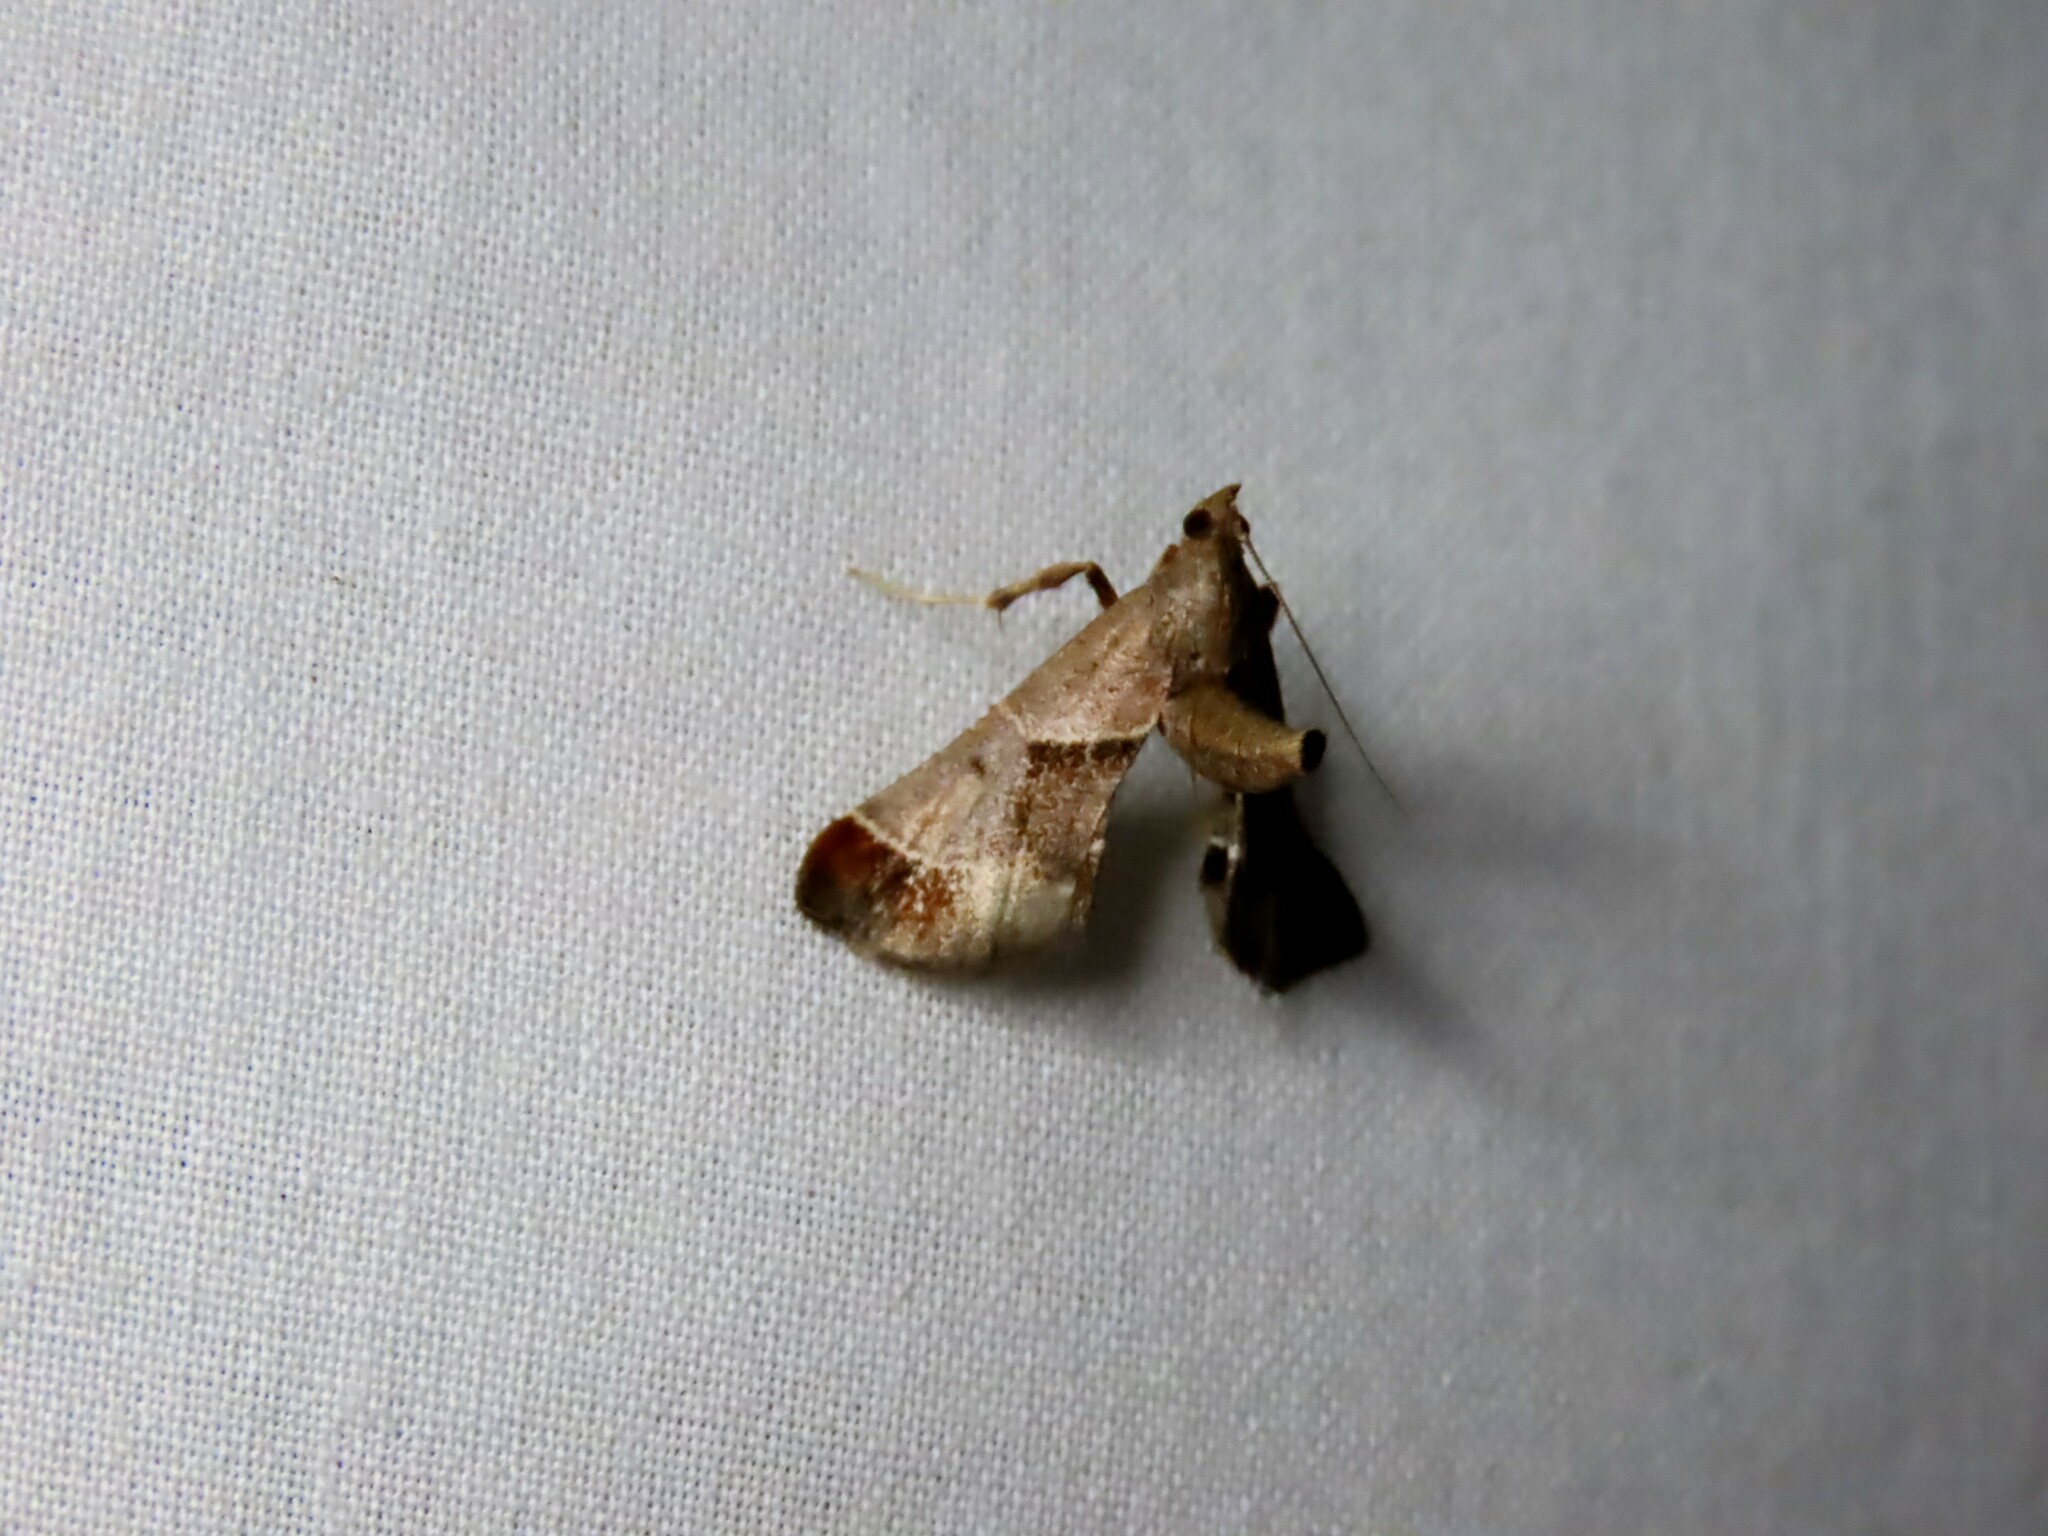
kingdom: Animalia
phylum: Arthropoda
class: Insecta
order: Lepidoptera
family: Pyralidae
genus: Gauna
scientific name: Gauna aegusalis
